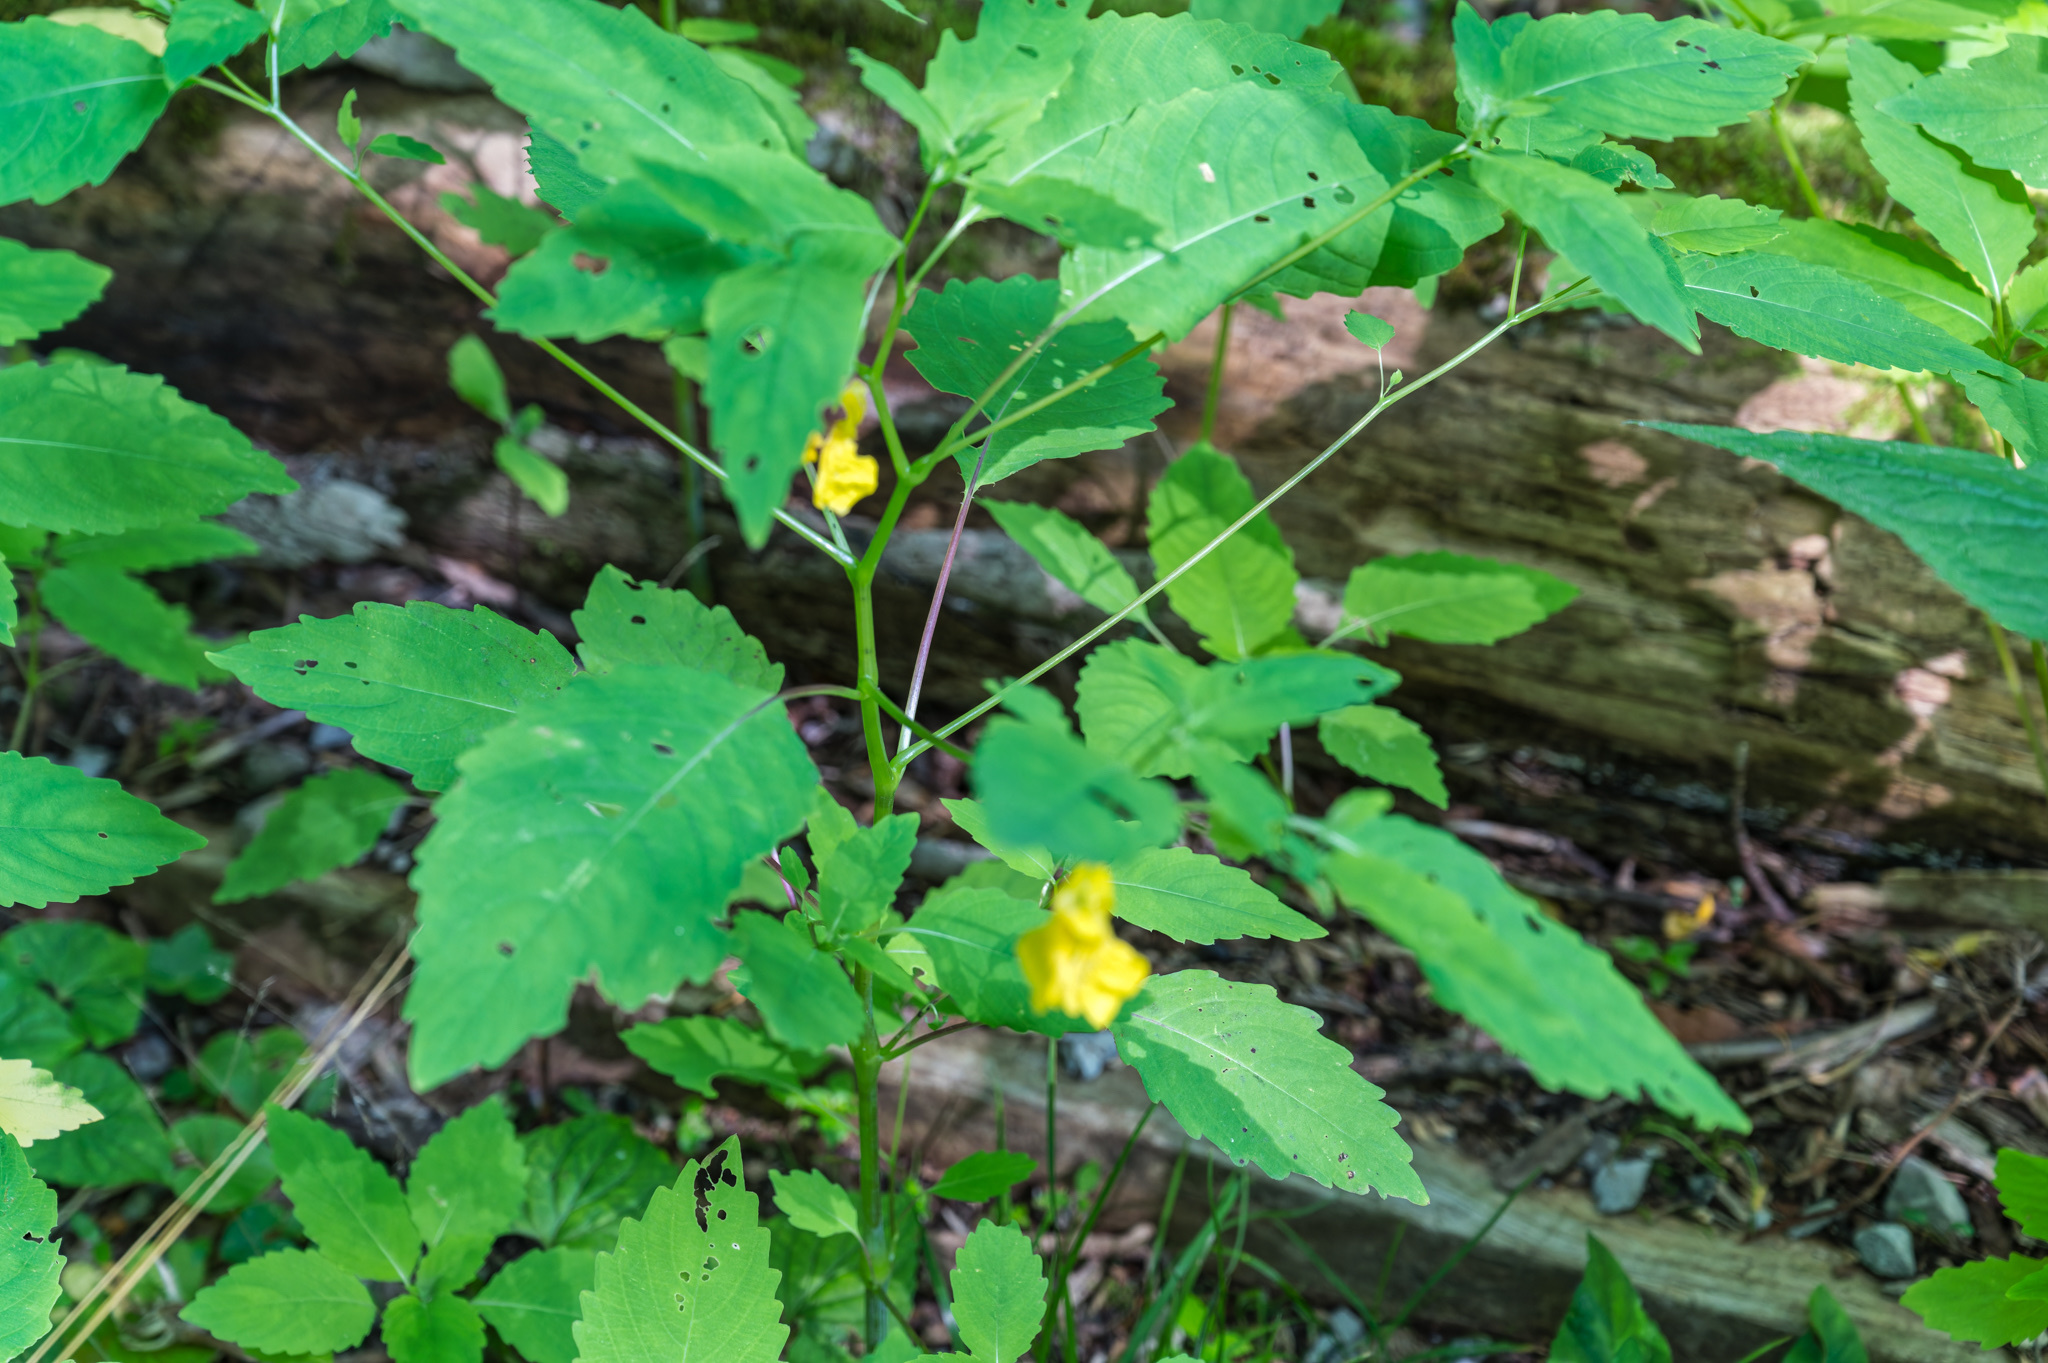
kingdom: Plantae
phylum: Tracheophyta
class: Magnoliopsida
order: Ericales
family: Balsaminaceae
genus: Impatiens
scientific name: Impatiens pallida
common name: Pale snapweed
